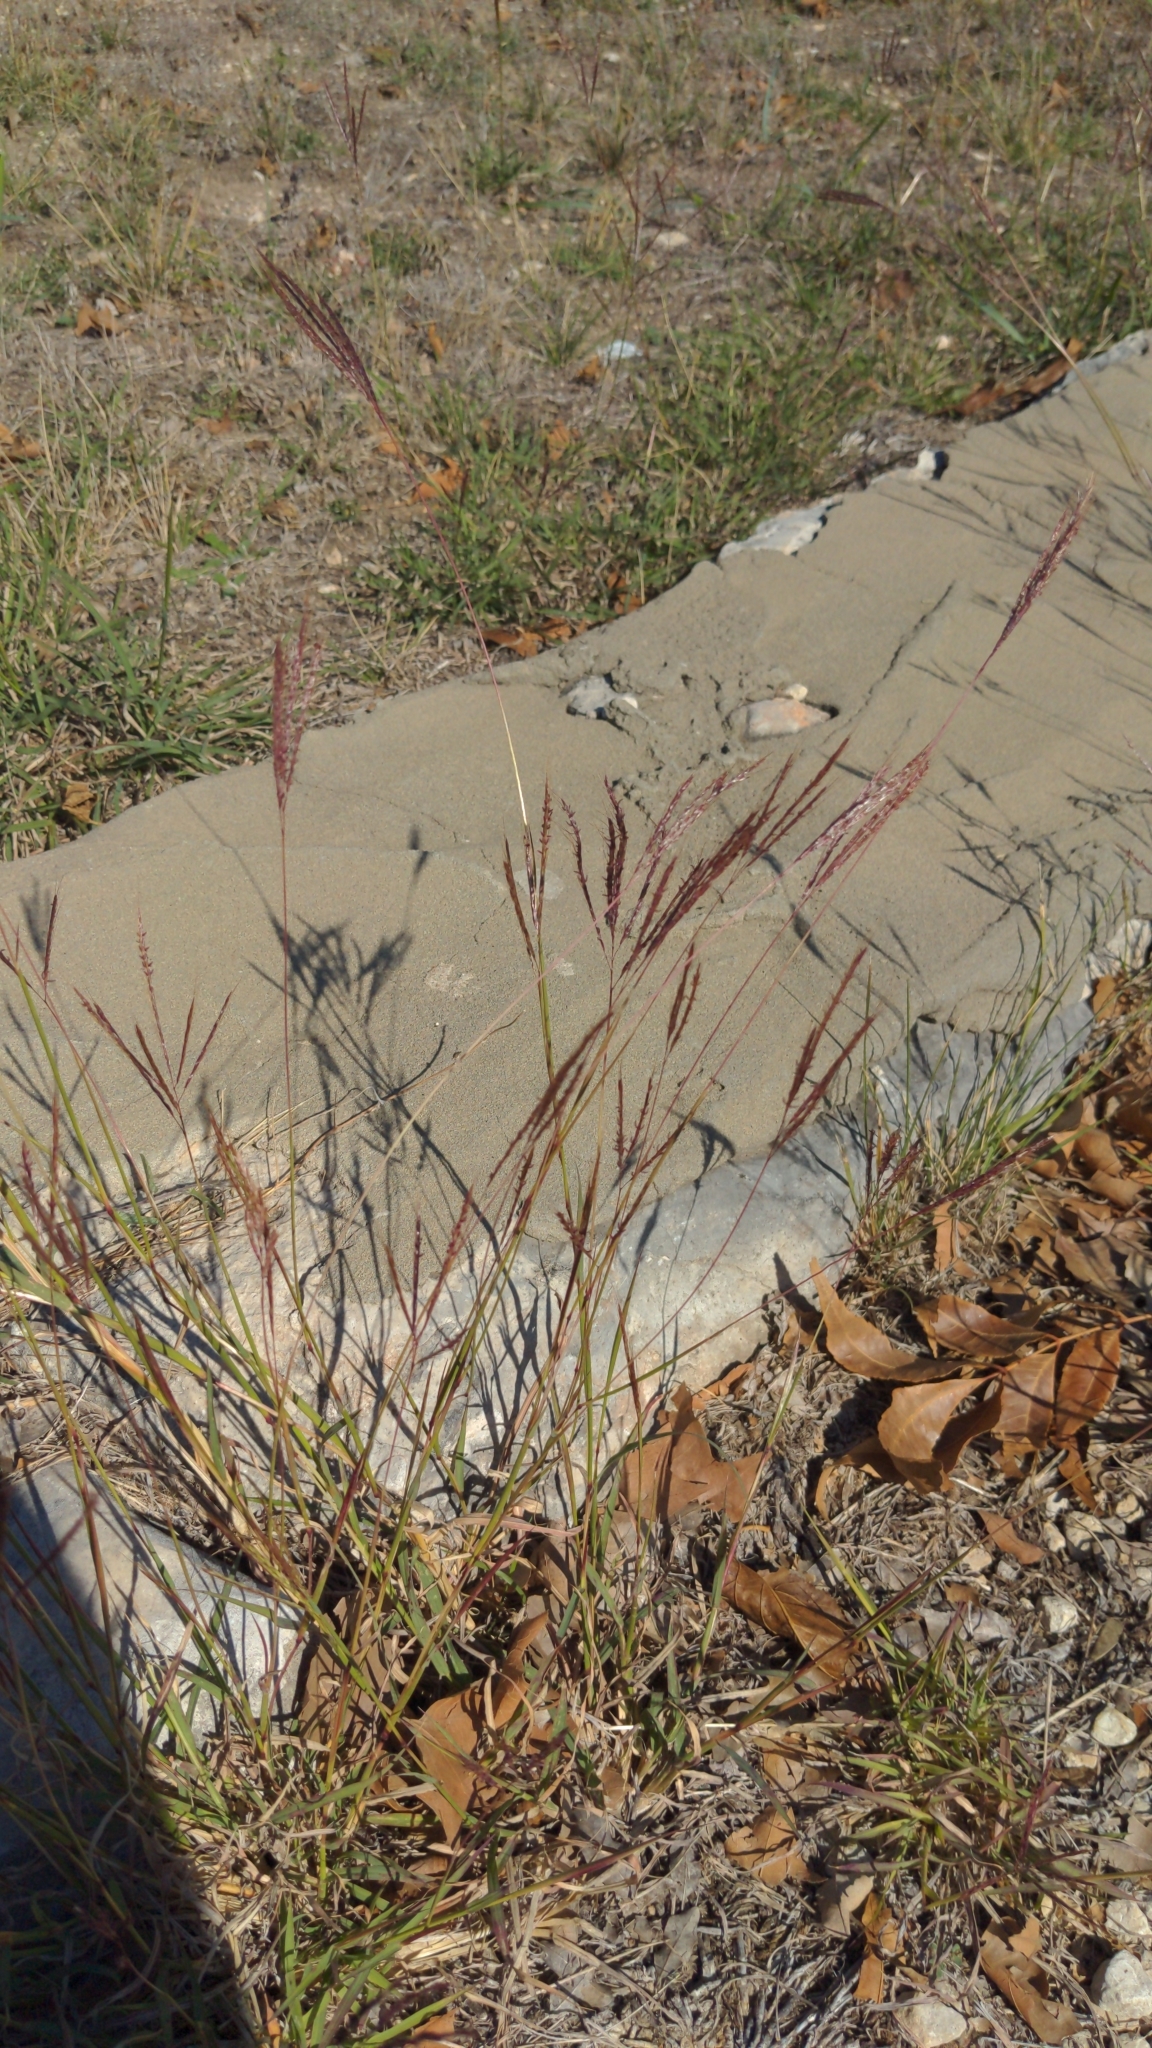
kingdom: Plantae
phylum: Tracheophyta
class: Liliopsida
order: Poales
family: Poaceae
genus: Bothriochloa
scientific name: Bothriochloa ischaemum
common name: Yellow bluestem
